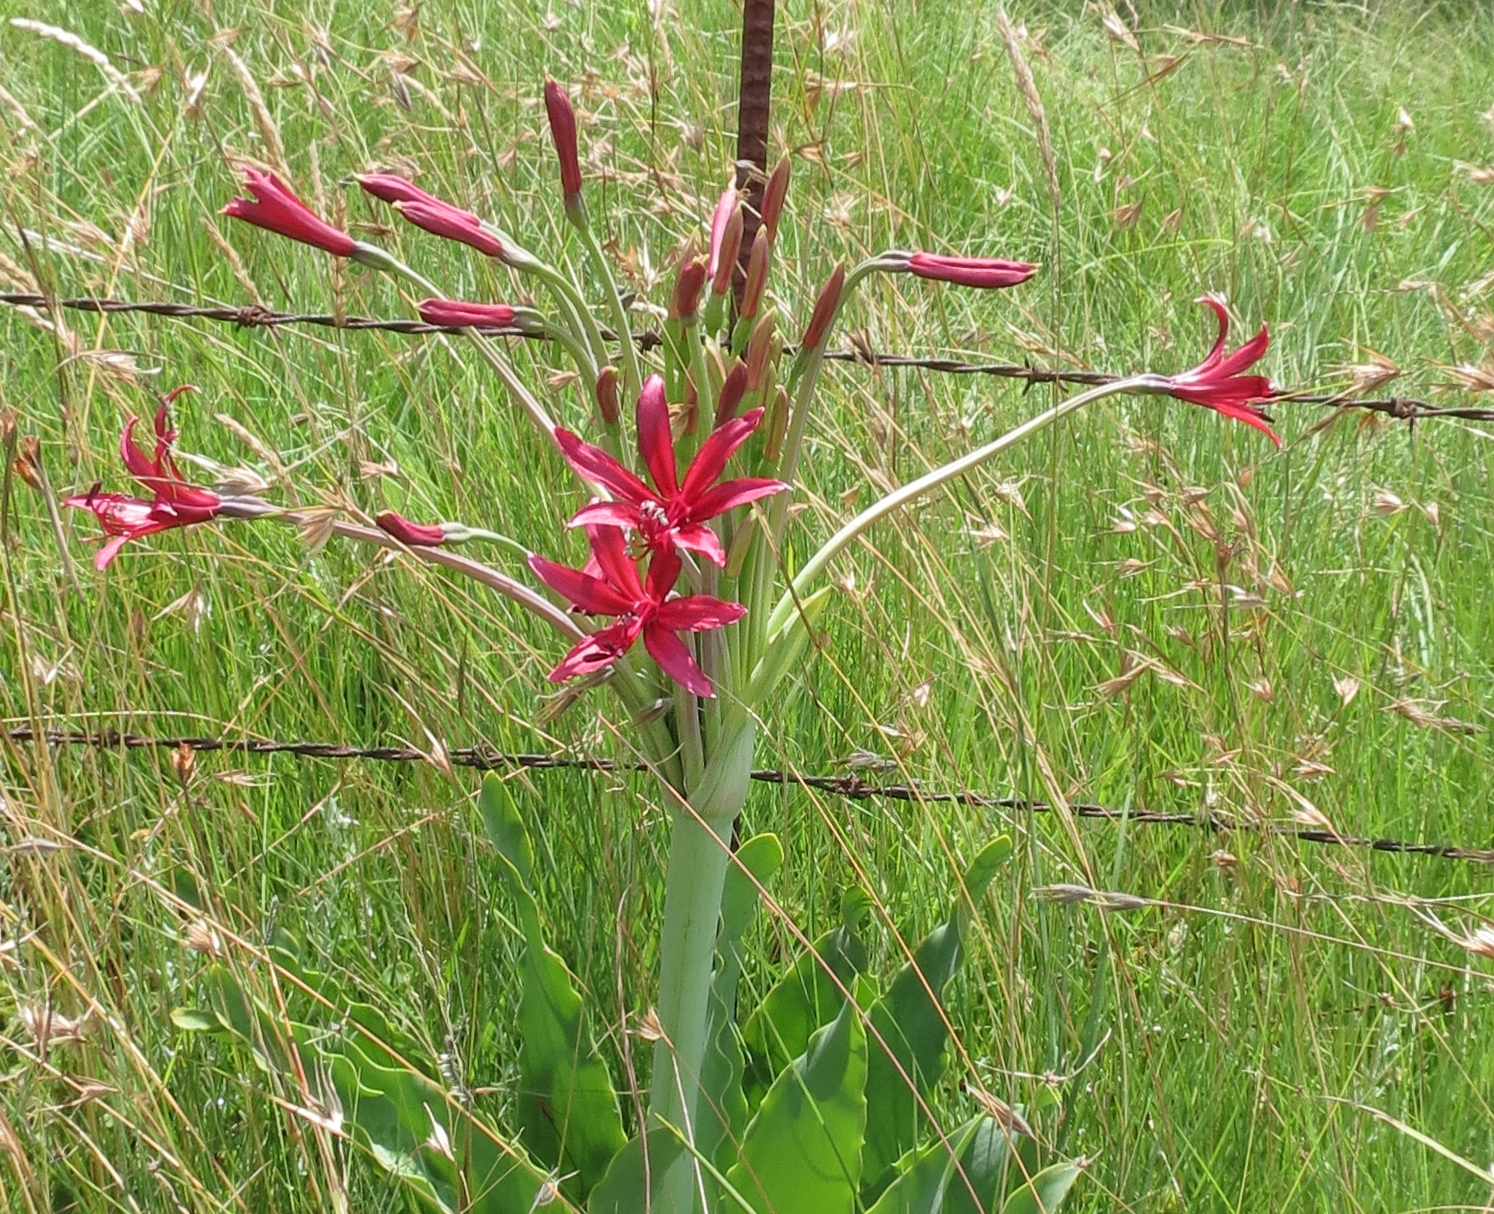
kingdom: Plantae
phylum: Tracheophyta
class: Liliopsida
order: Asparagales
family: Amaryllidaceae
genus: Brunsvigia
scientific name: Brunsvigia undulata
